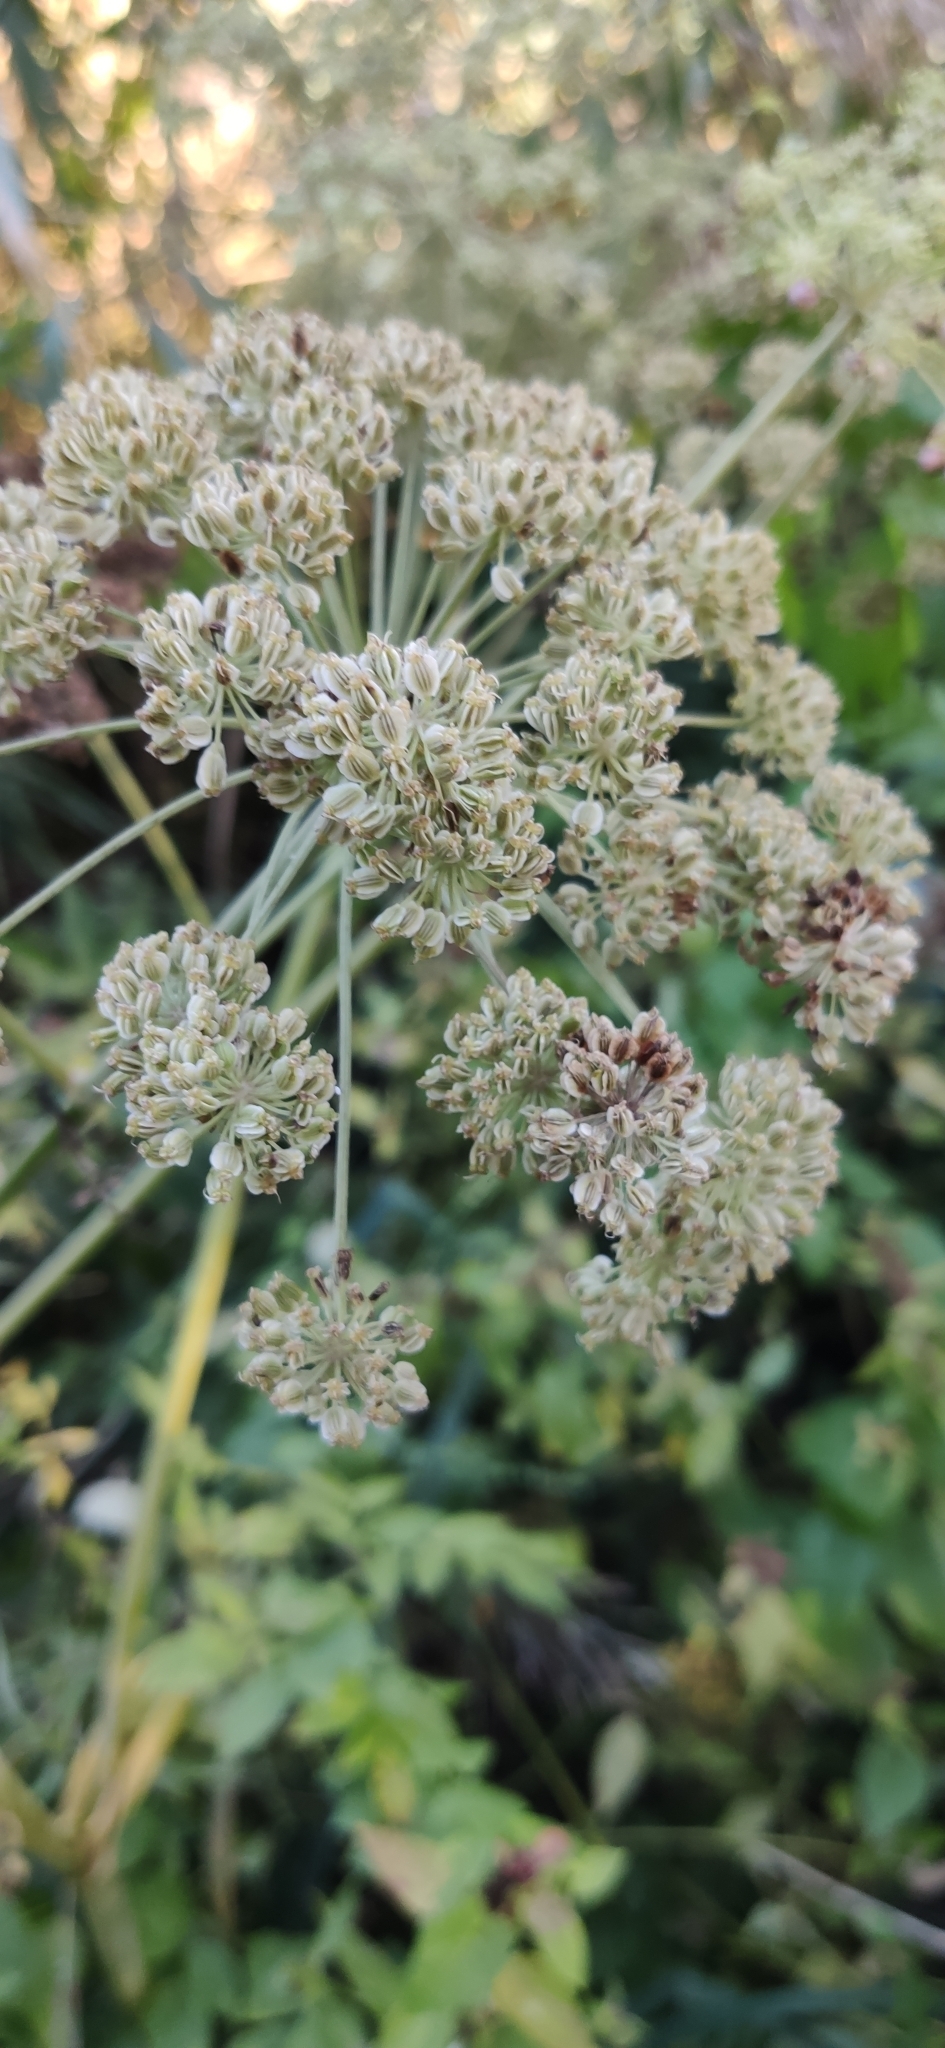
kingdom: Plantae
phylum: Tracheophyta
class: Magnoliopsida
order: Apiales
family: Apiaceae
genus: Angelica
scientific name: Angelica sylvestris
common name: Wild angelica
